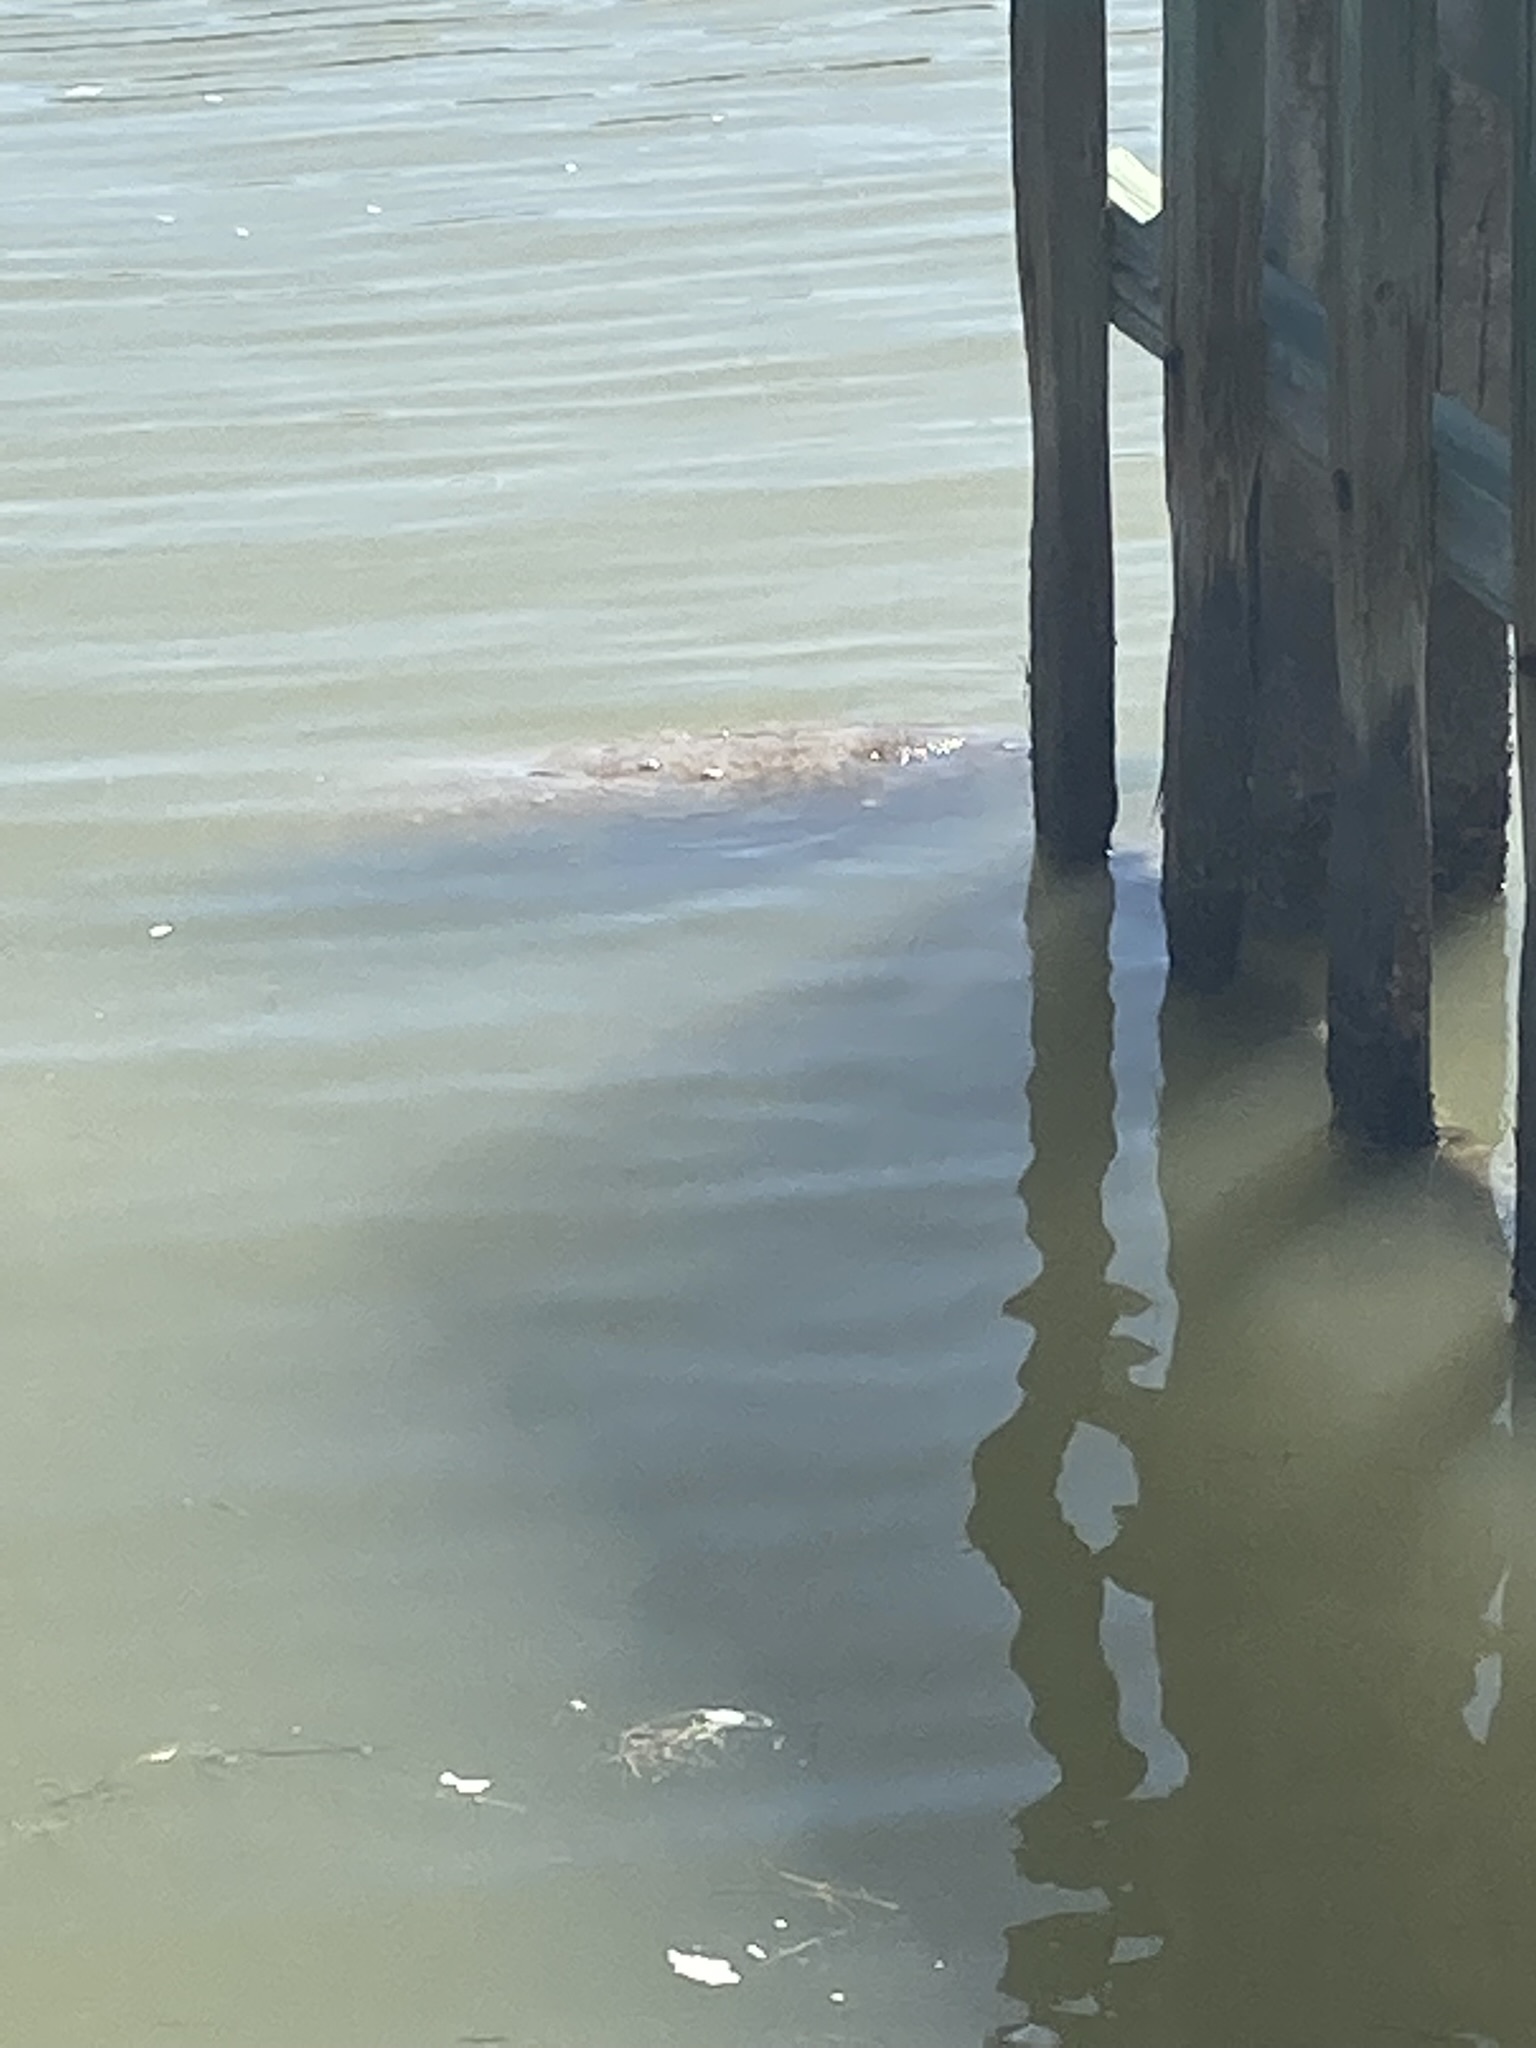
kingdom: Animalia
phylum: Chordata
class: Mammalia
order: Sirenia
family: Trichechidae
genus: Trichechus
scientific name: Trichechus manatus
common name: West indian manatee
